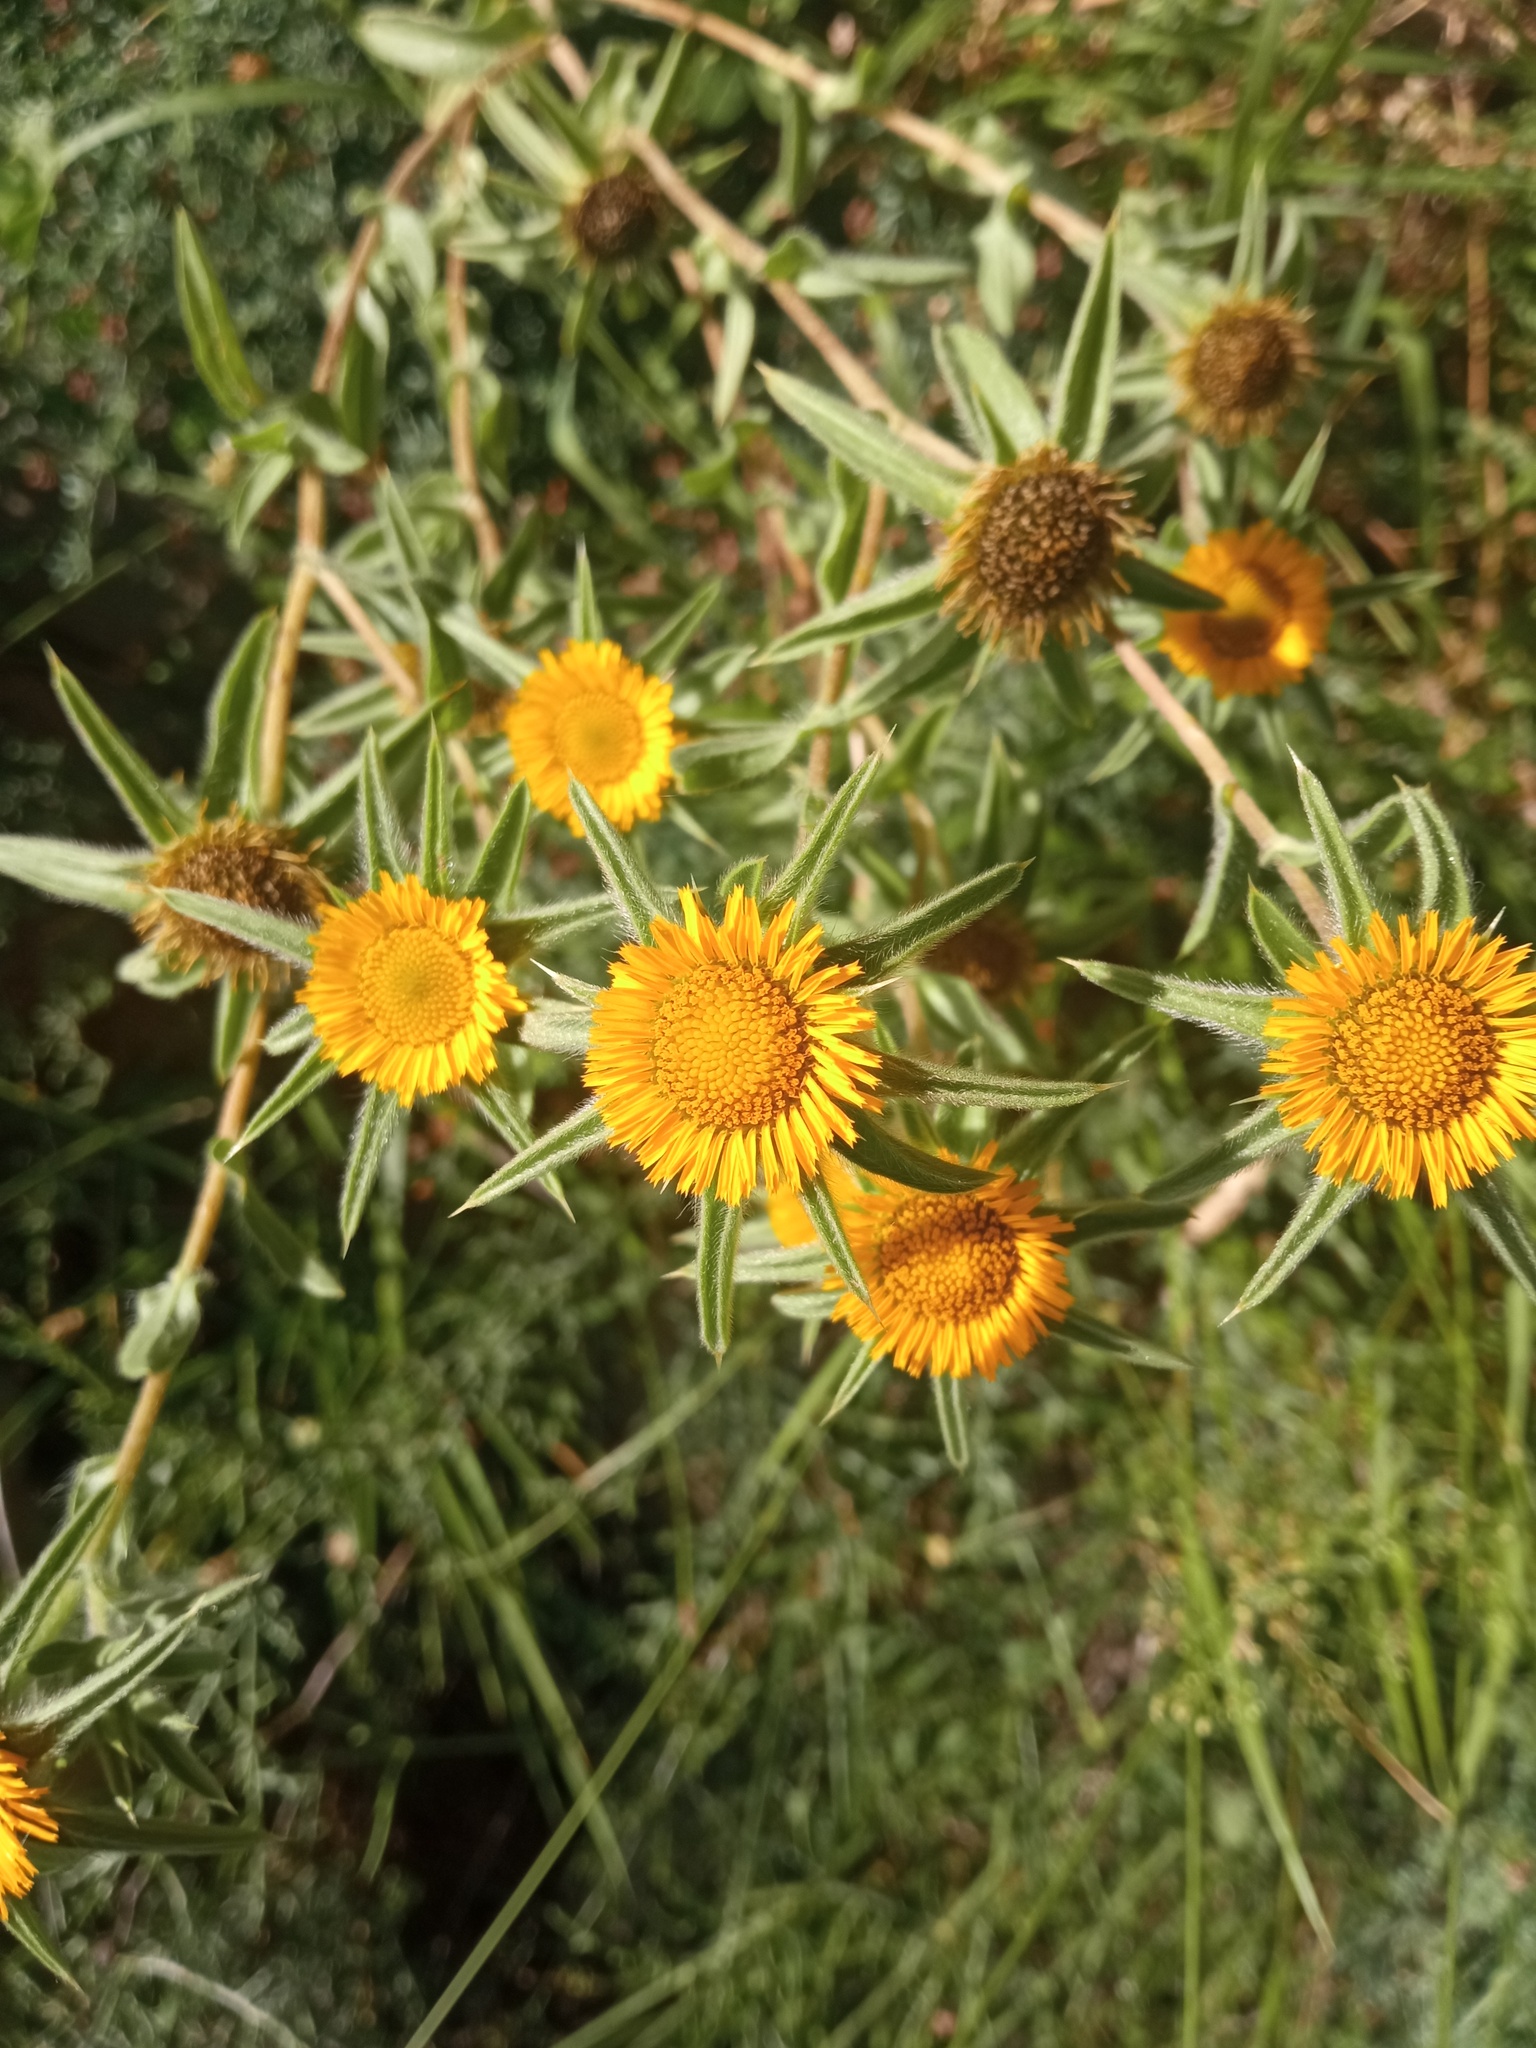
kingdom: Plantae
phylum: Tracheophyta
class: Magnoliopsida
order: Asterales
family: Asteraceae
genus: Pallenis
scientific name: Pallenis spinosa
